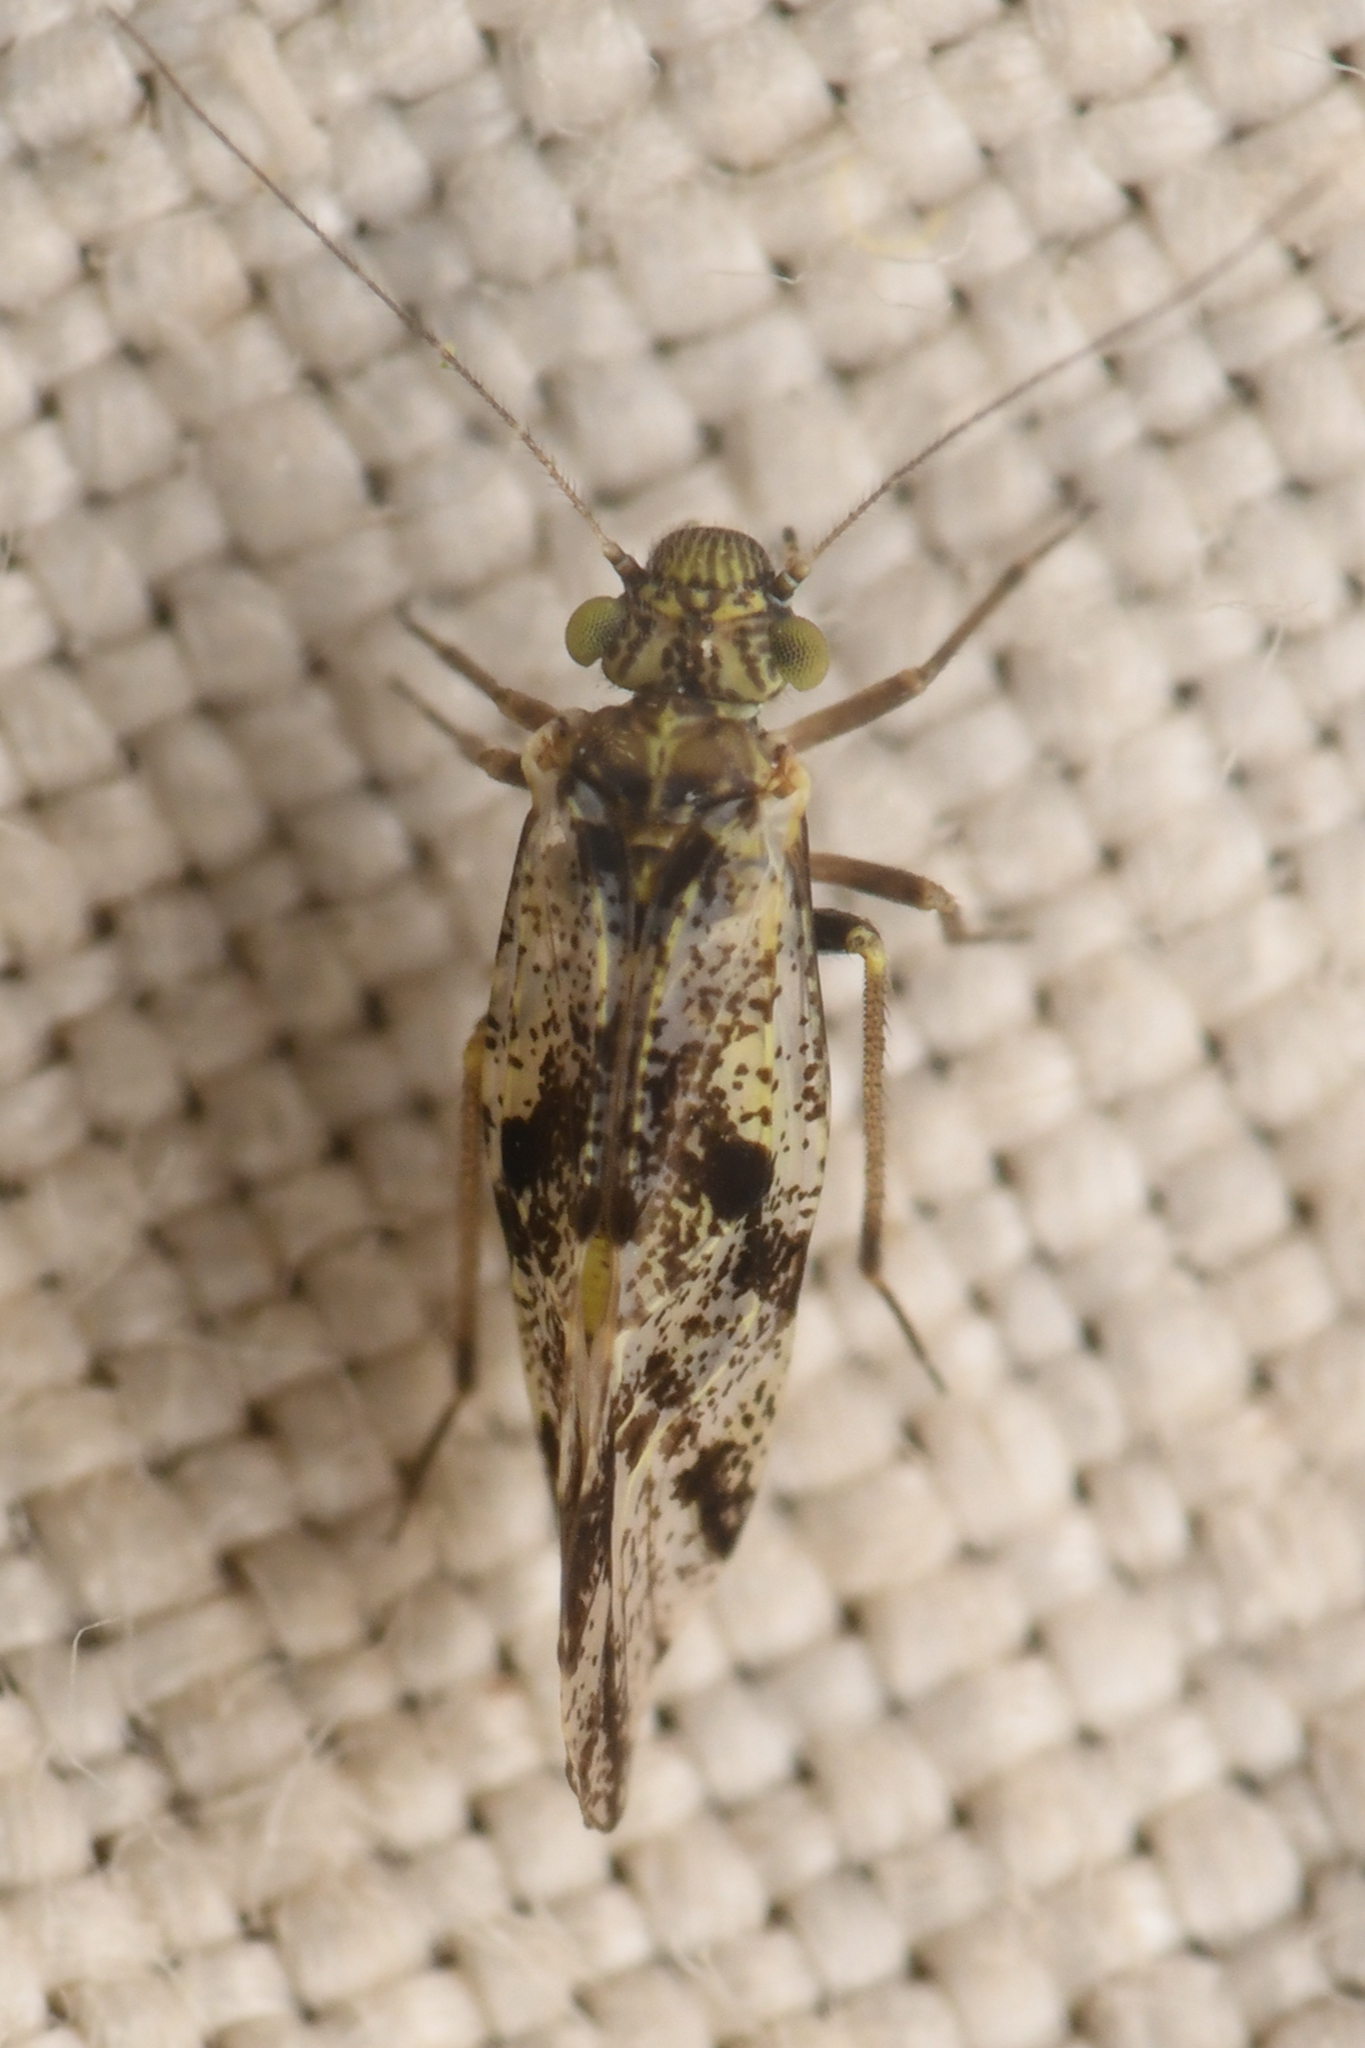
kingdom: Animalia
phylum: Arthropoda
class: Insecta
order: Psocodea
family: Psocidae
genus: Loensia
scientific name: Loensia maculosa
